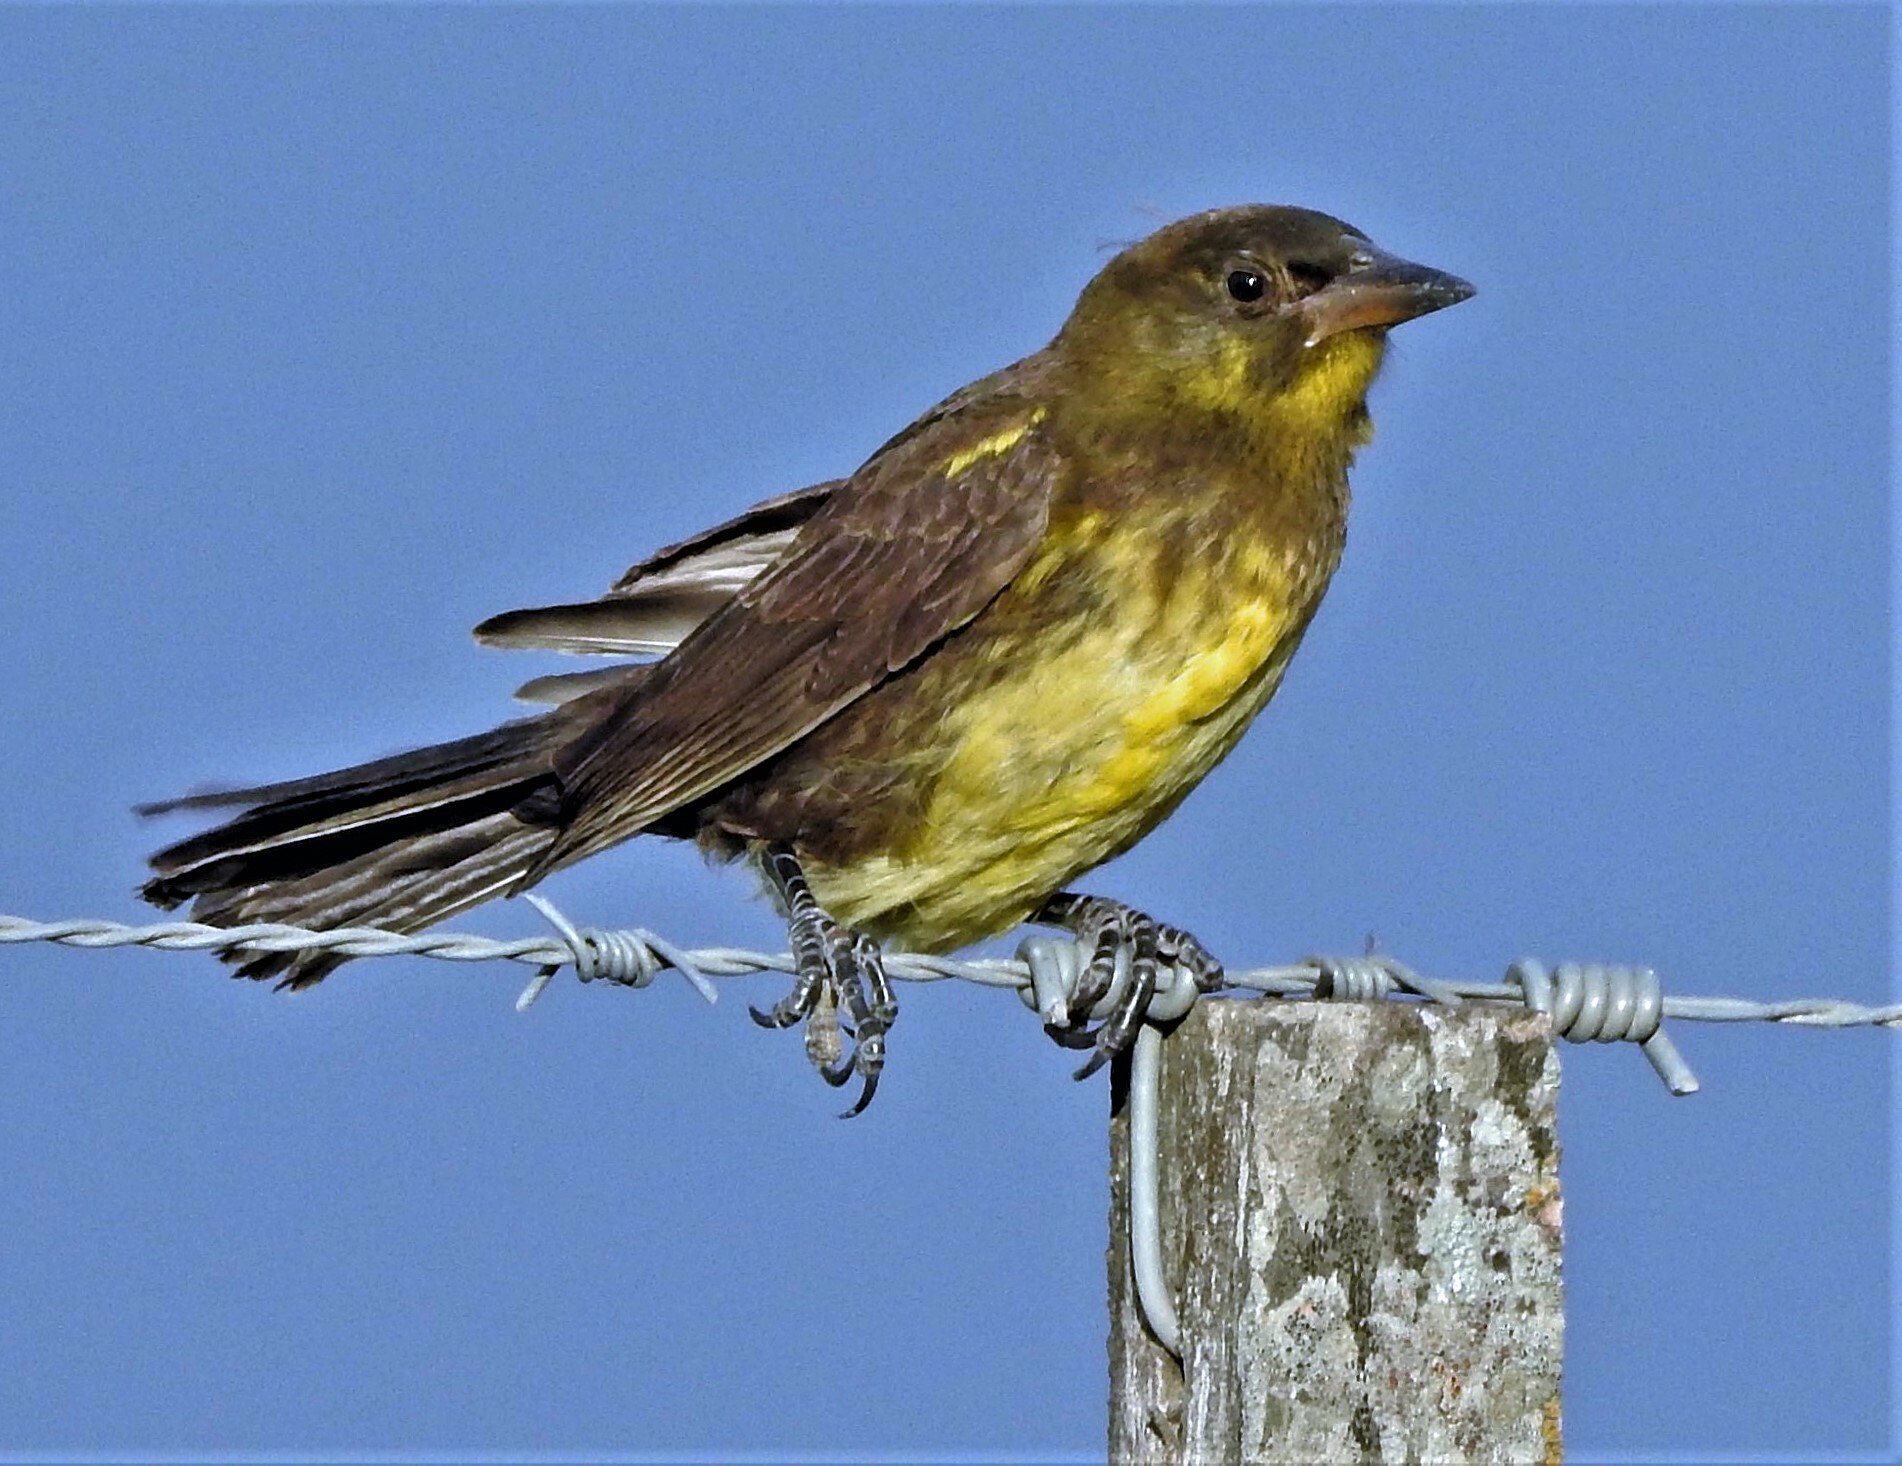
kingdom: Animalia
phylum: Chordata
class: Aves
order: Passeriformes
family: Icteridae
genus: Pseudoleistes
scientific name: Pseudoleistes virescens
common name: Brown-and-yellow marshbird
